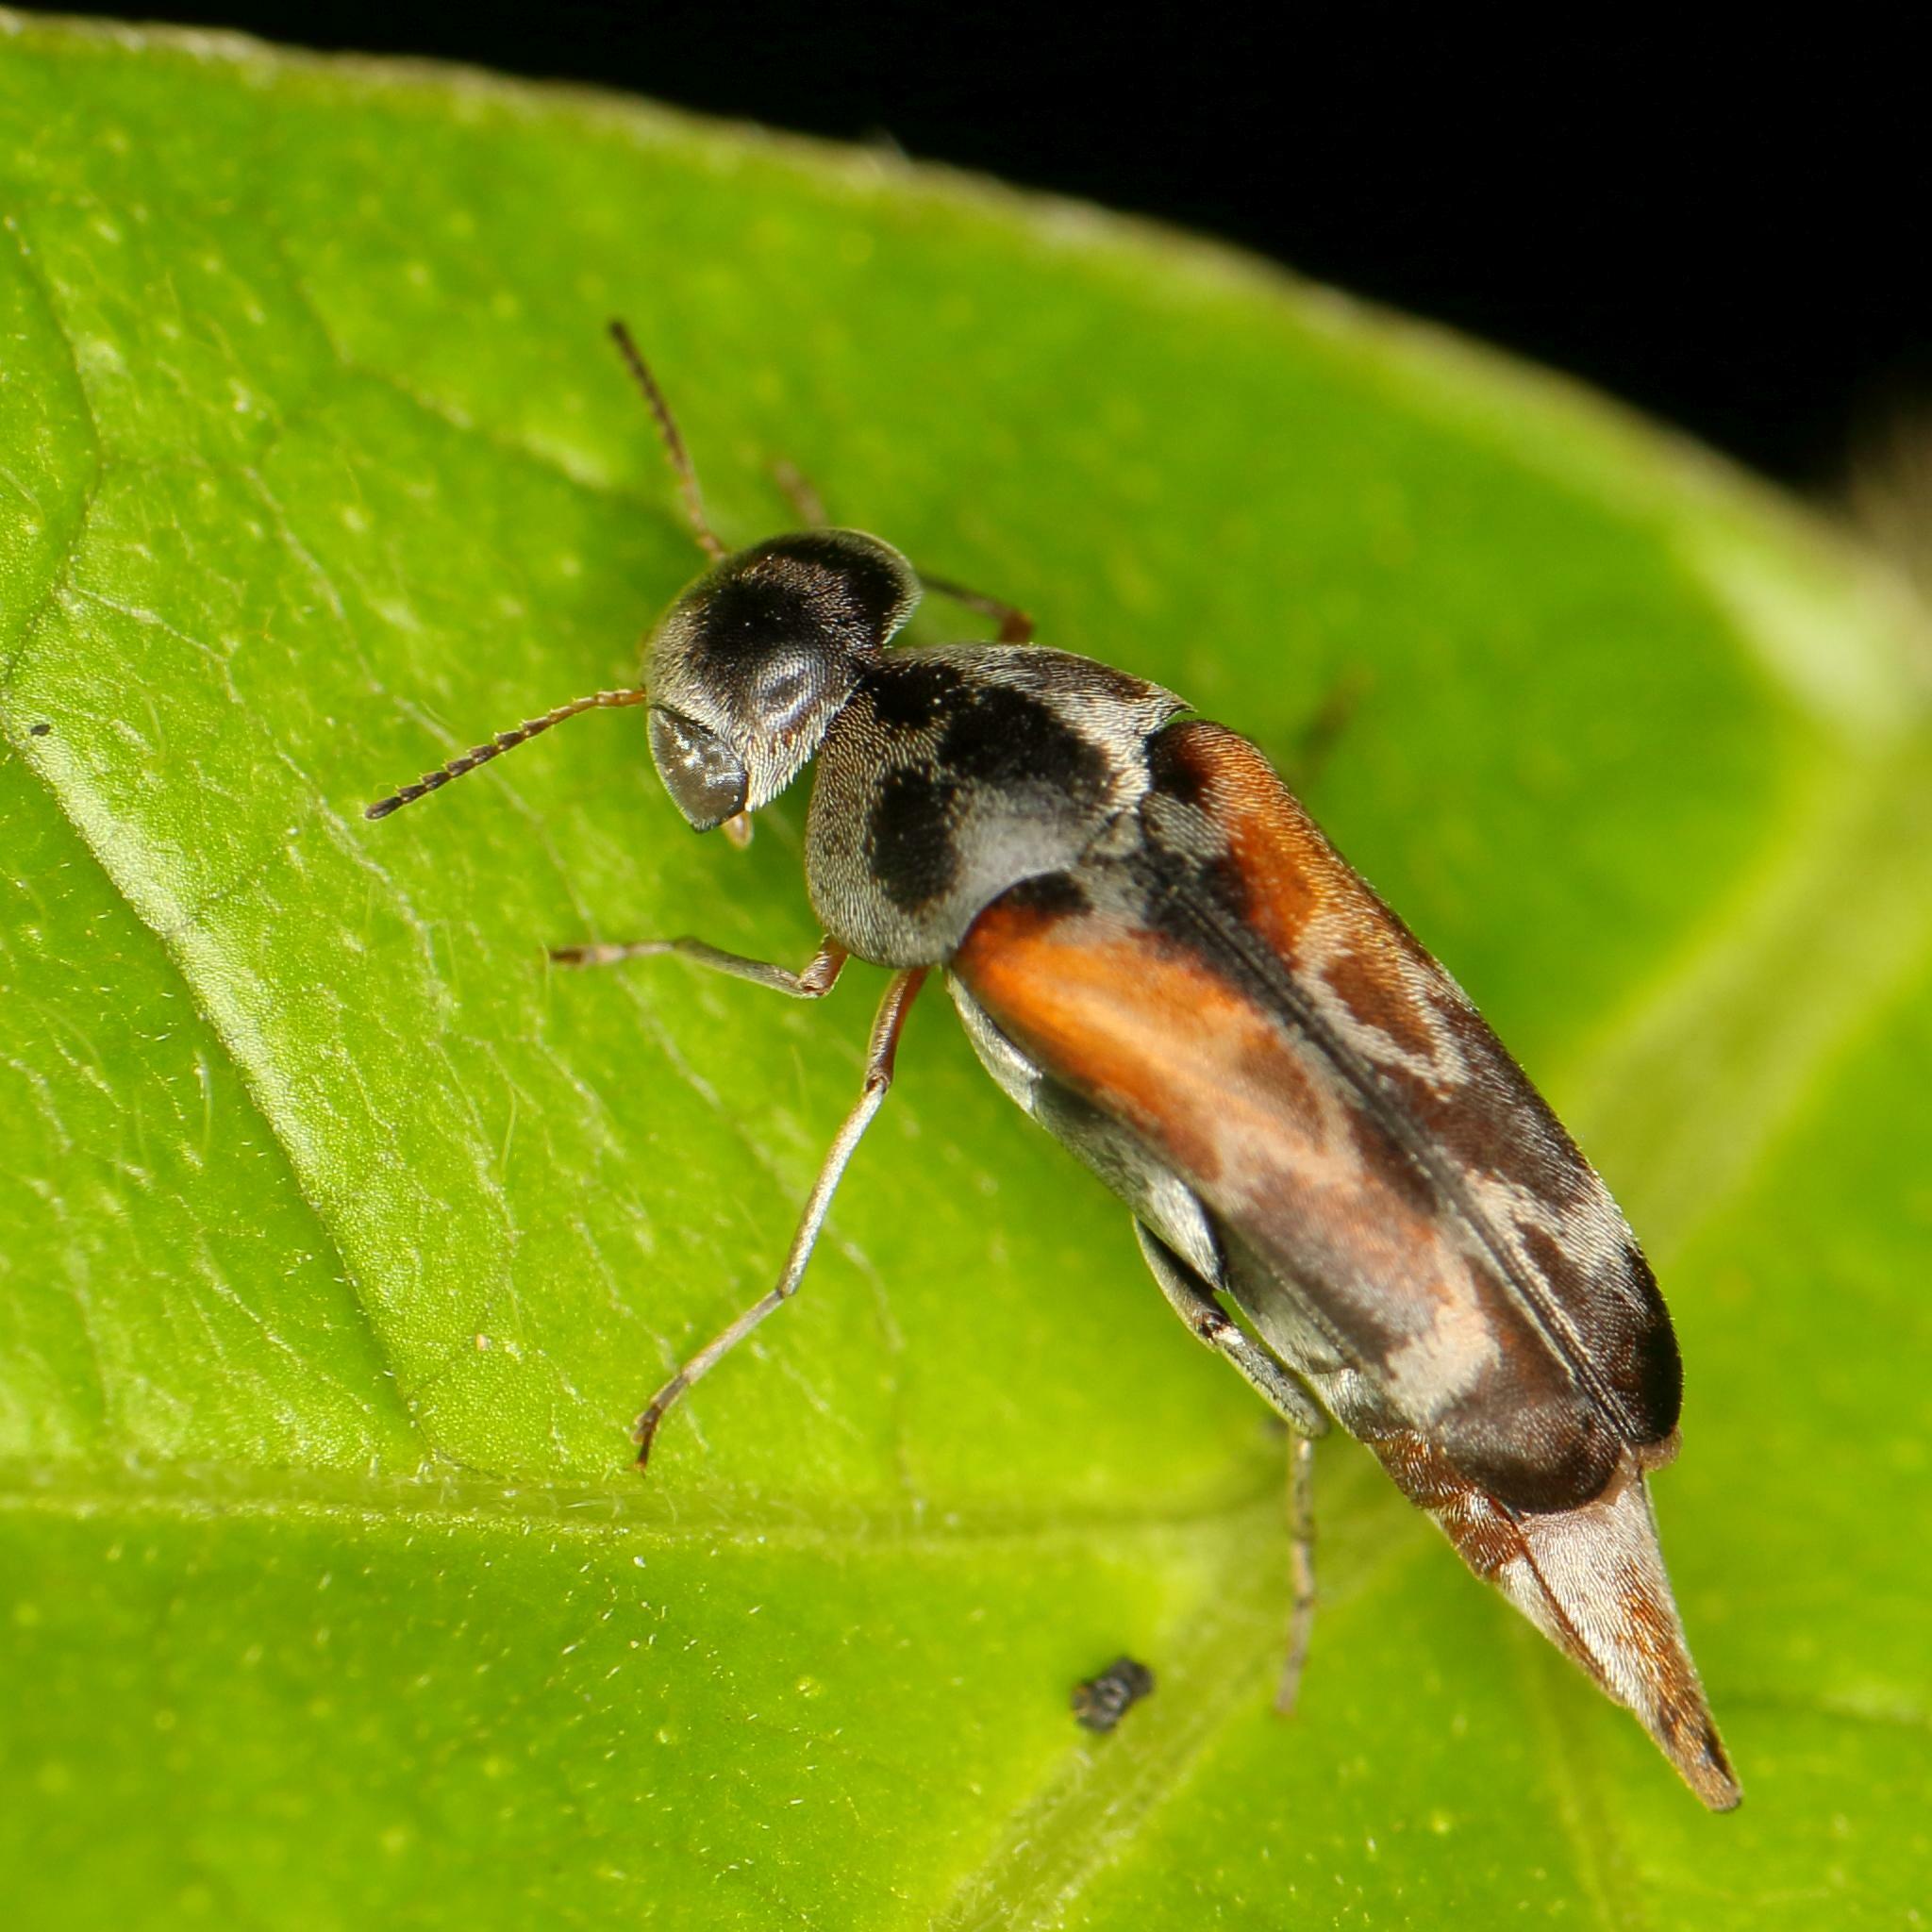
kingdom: Animalia
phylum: Arthropoda
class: Insecta
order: Coleoptera
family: Mordellidae
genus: Glipidiomorpha
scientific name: Glipidiomorpha
